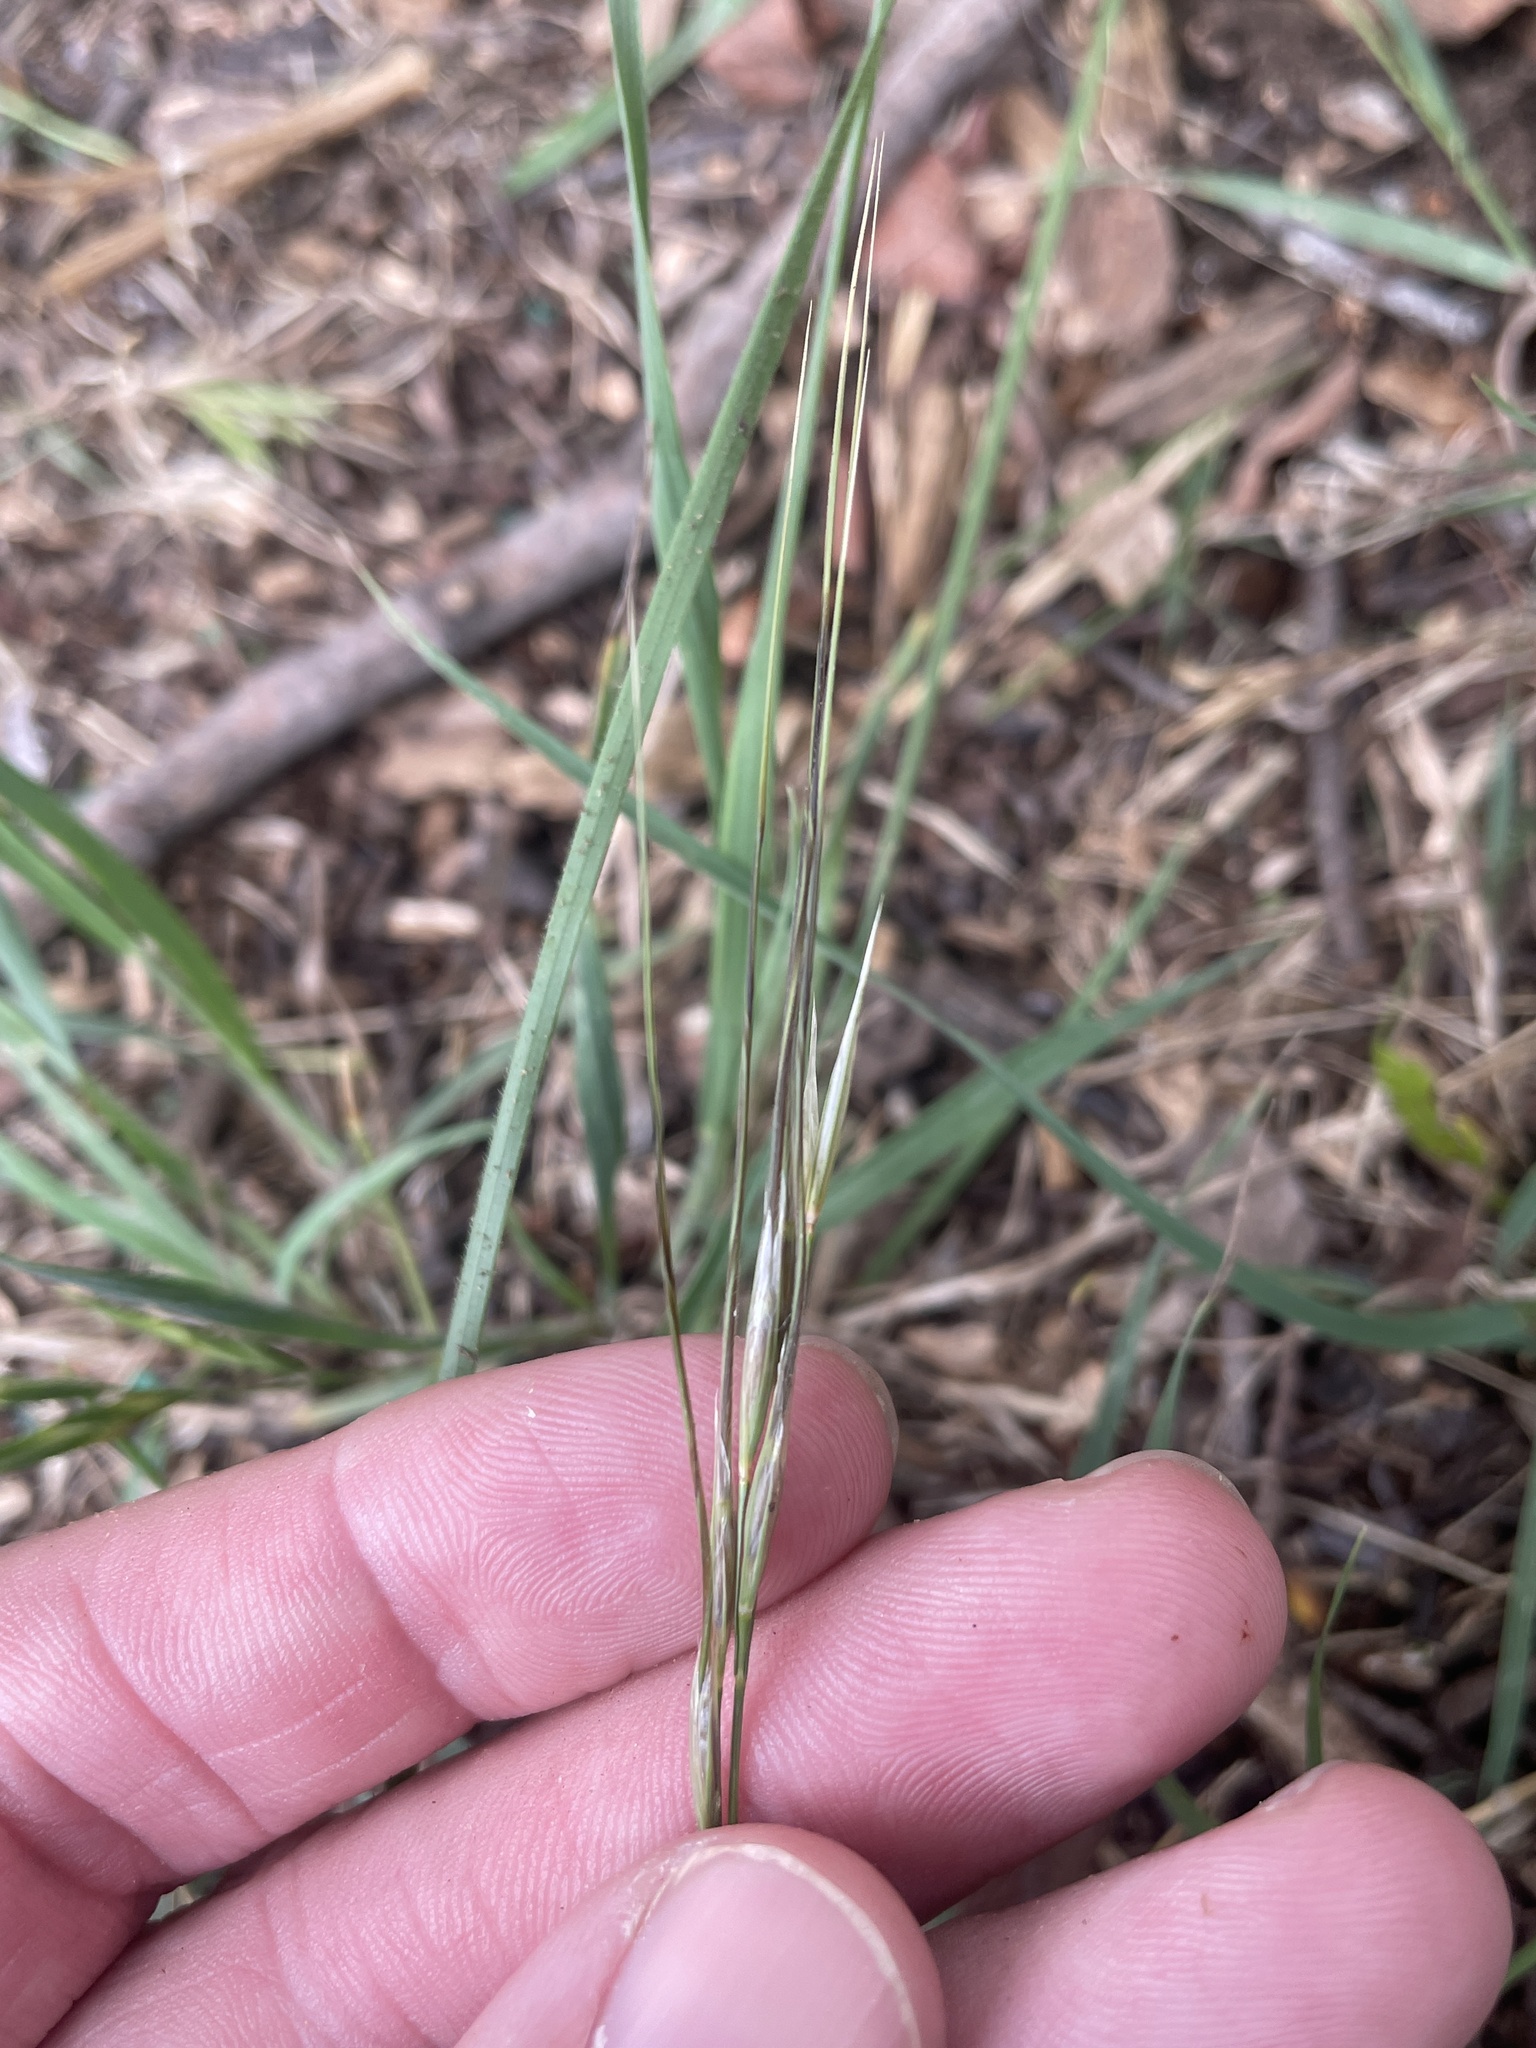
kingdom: Plantae
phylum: Tracheophyta
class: Liliopsida
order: Poales
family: Poaceae
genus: Nassella
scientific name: Nassella leucotricha
